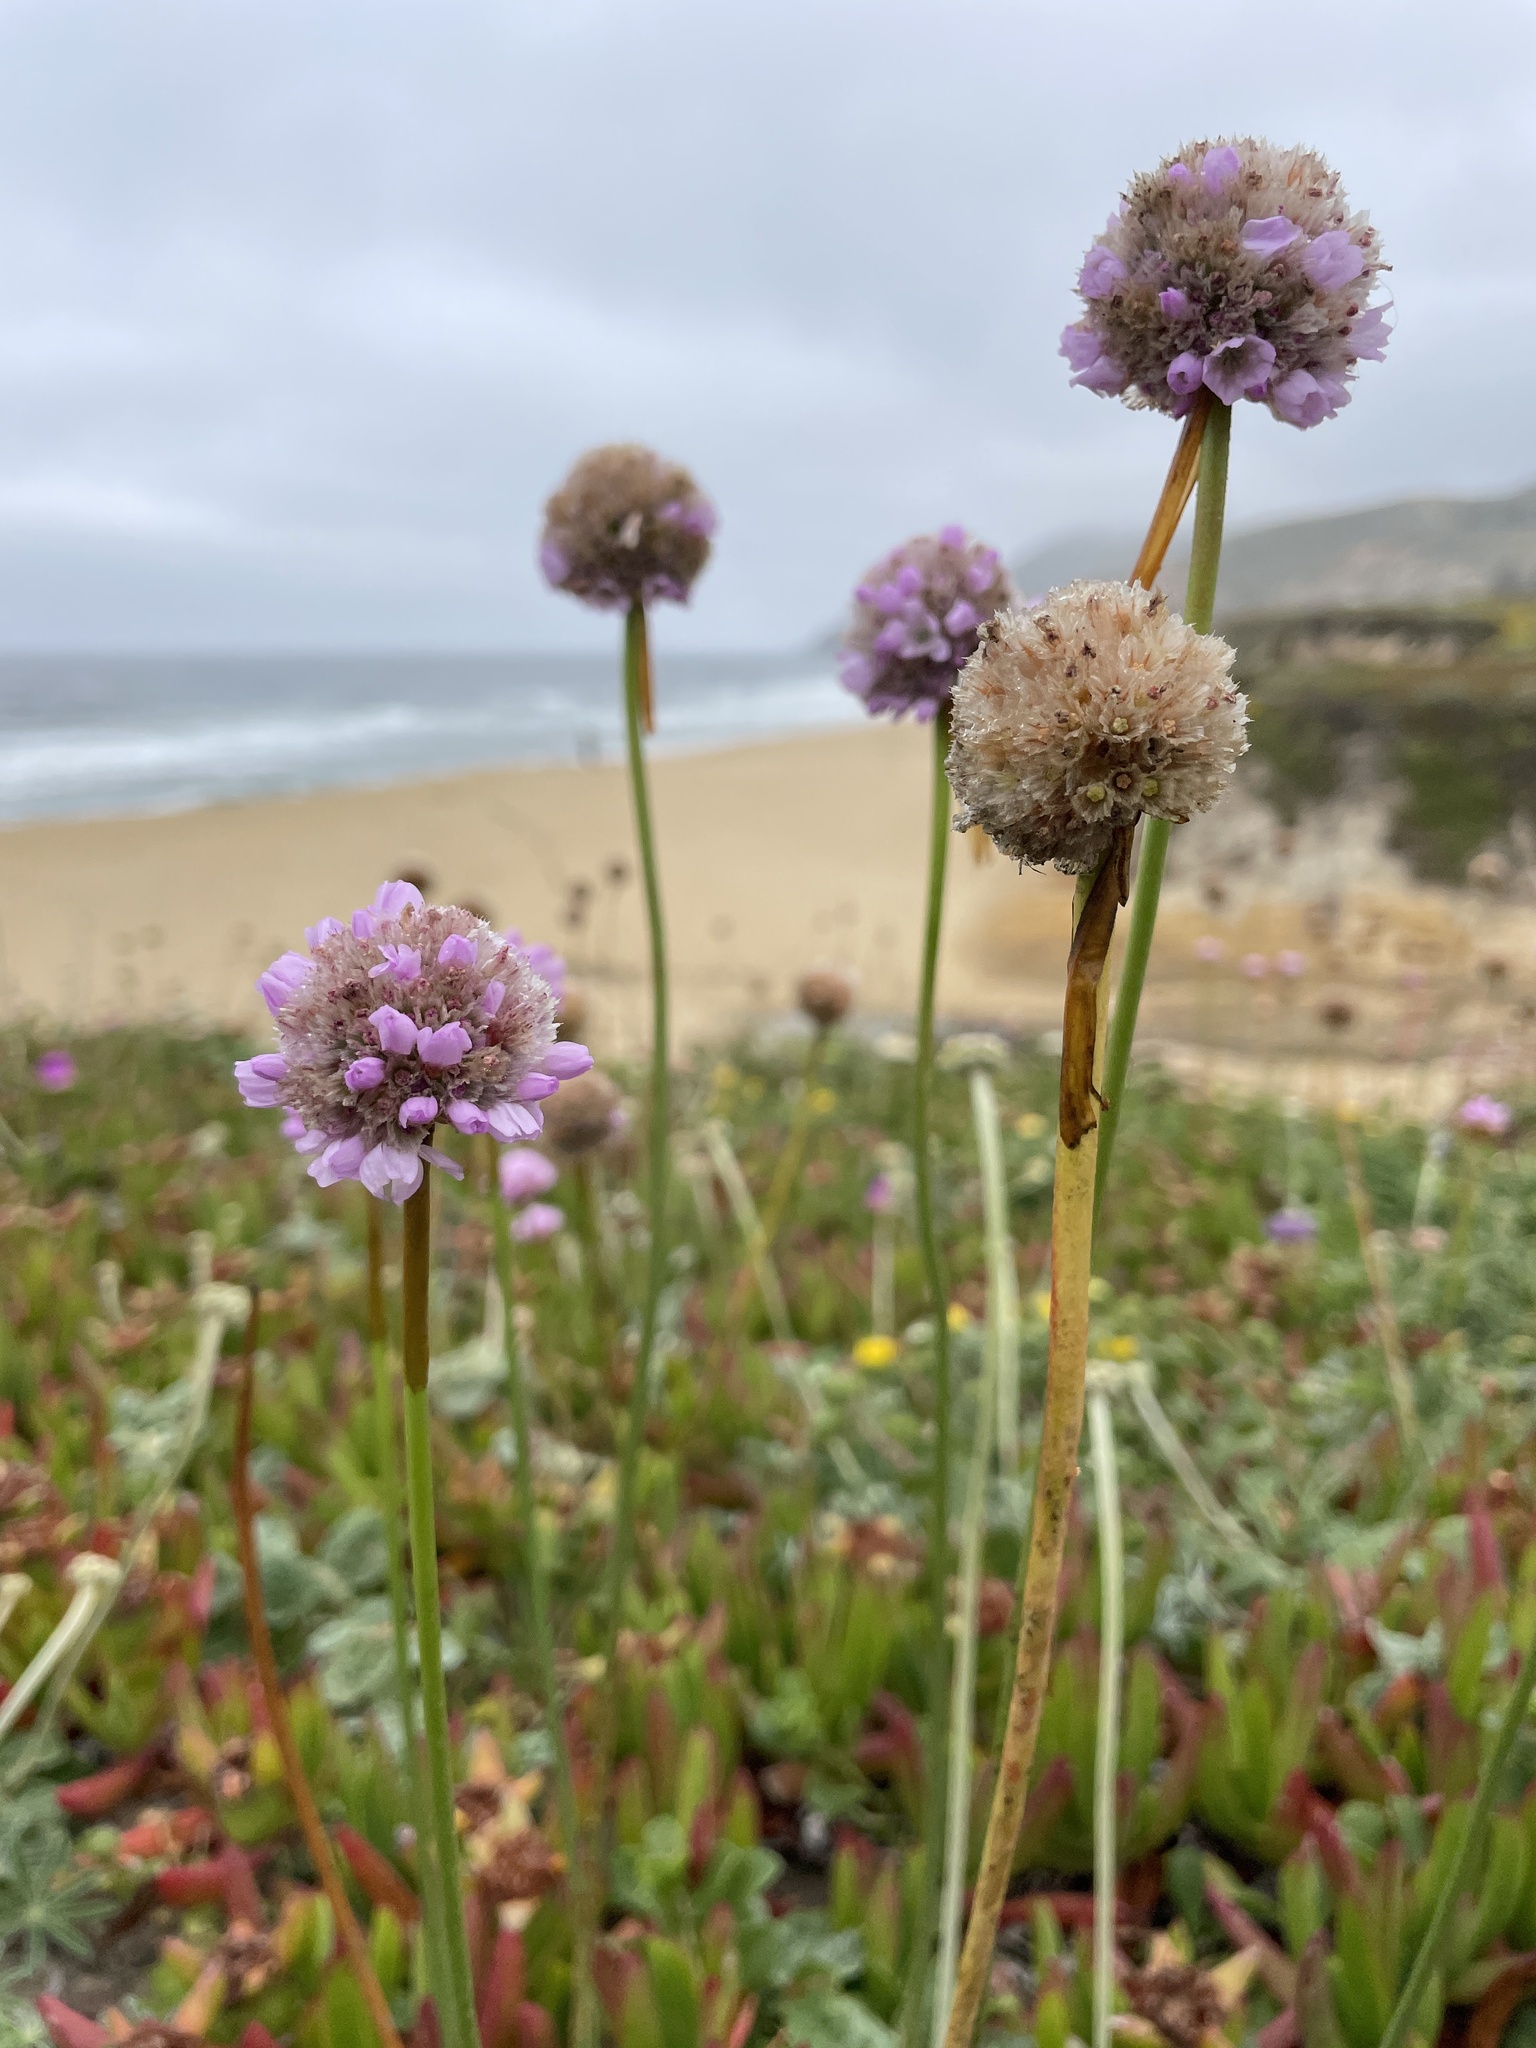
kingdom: Plantae
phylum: Tracheophyta
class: Magnoliopsida
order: Caryophyllales
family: Plumbaginaceae
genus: Armeria
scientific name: Armeria maritima
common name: Thrift
